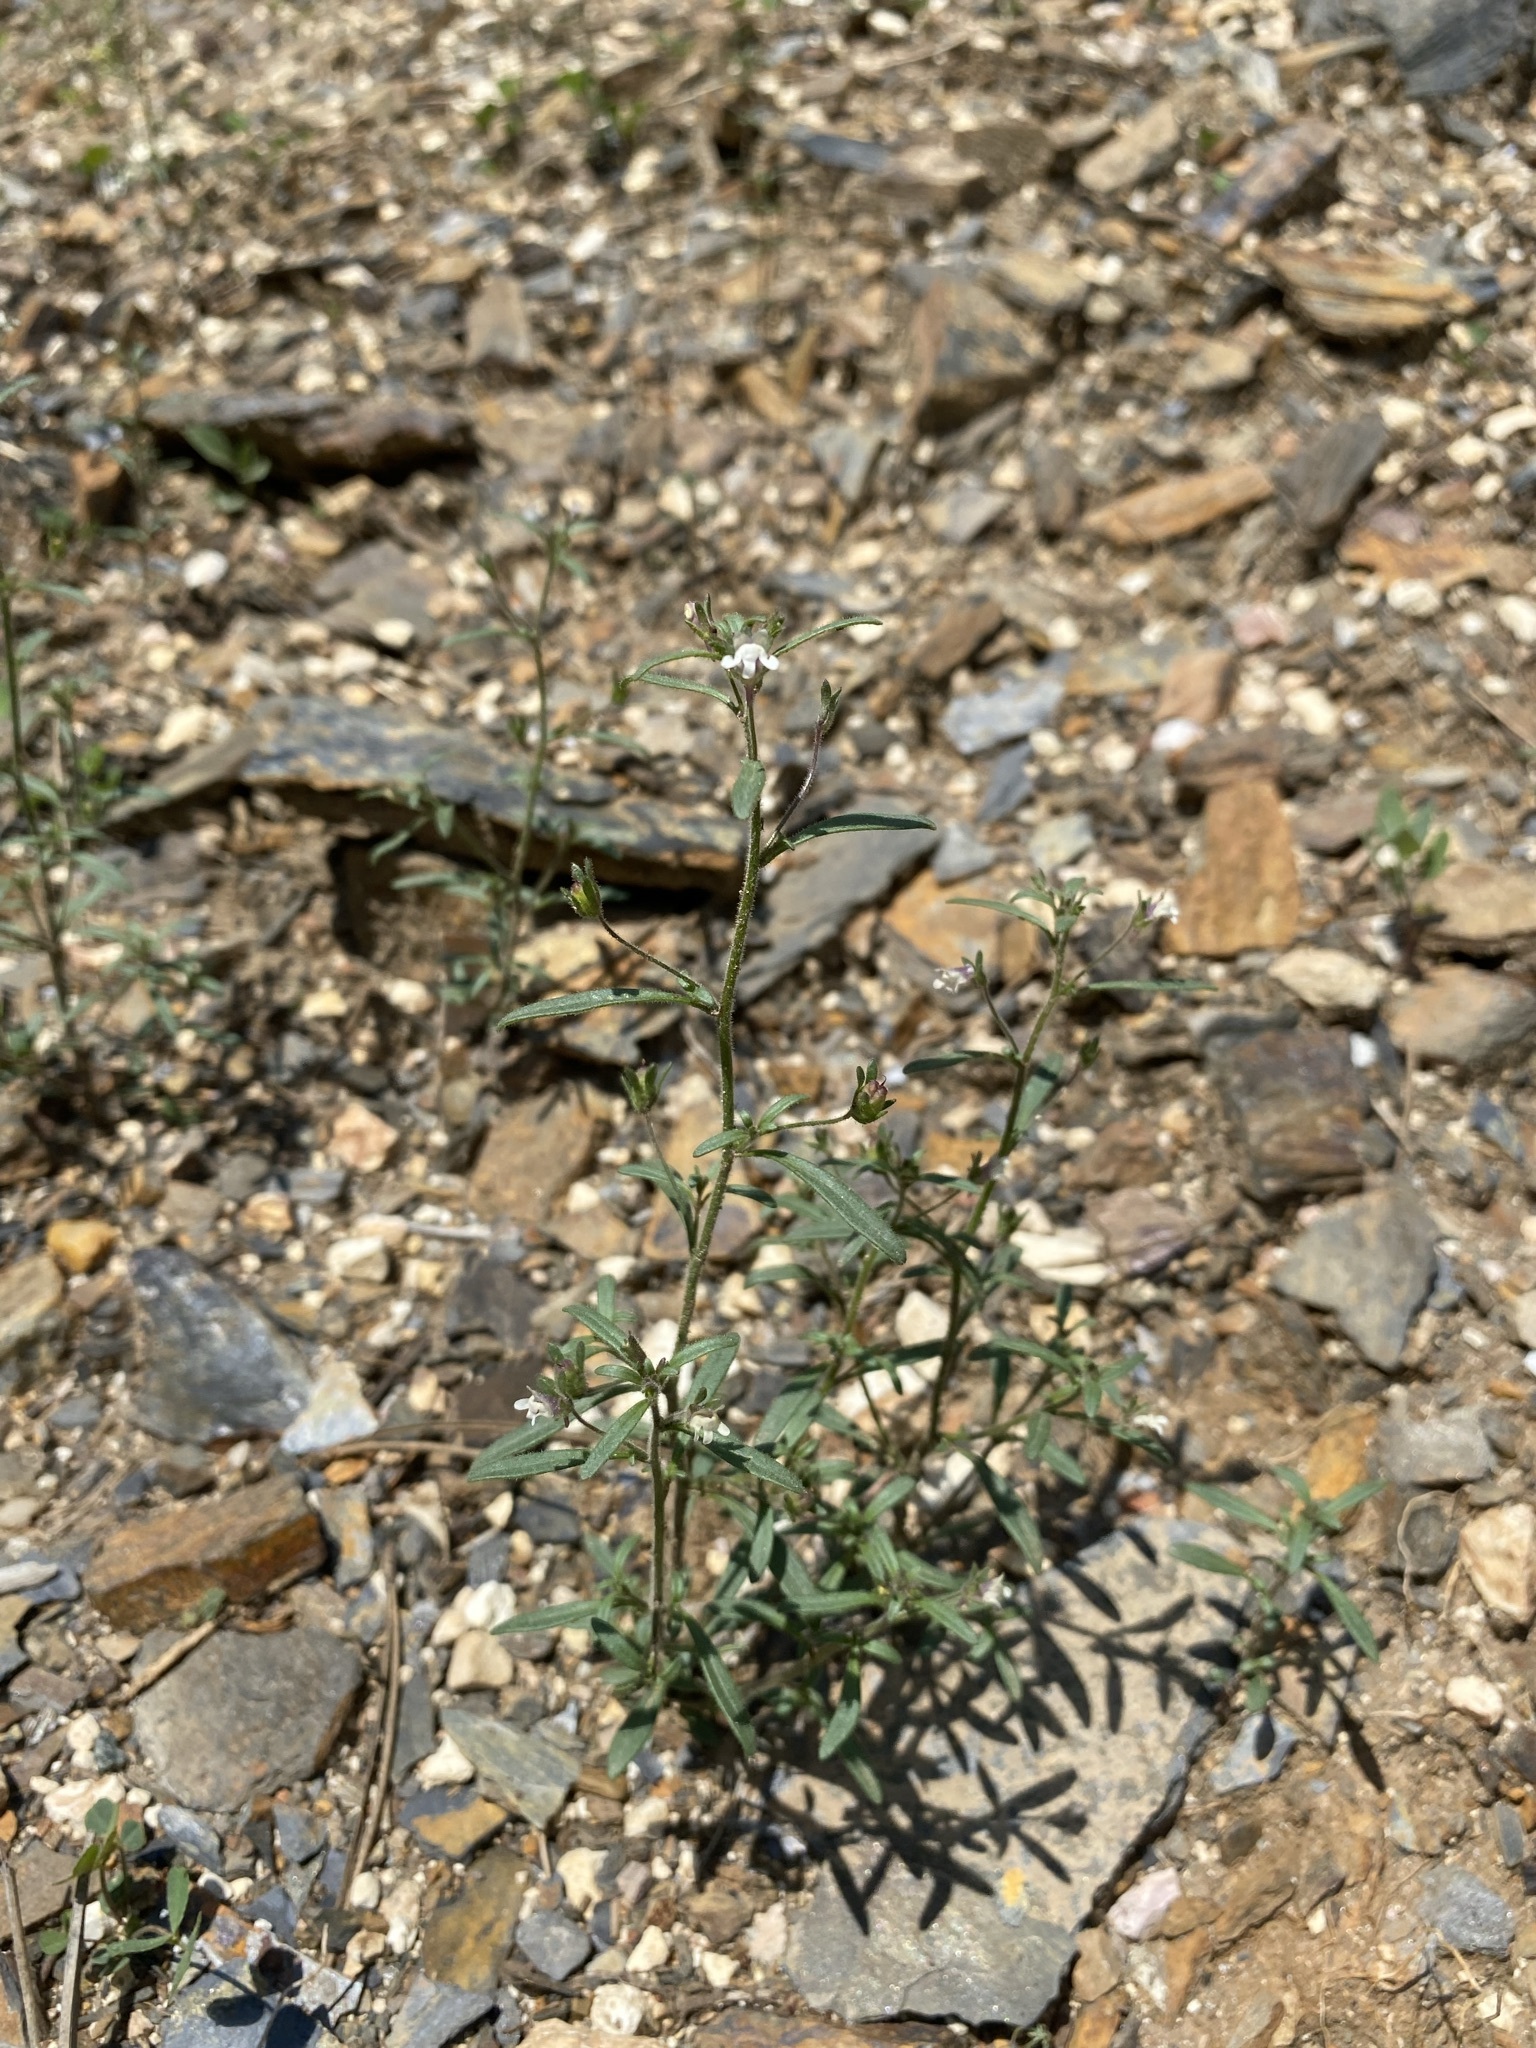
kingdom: Plantae
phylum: Tracheophyta
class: Magnoliopsida
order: Lamiales
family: Plantaginaceae
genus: Chaenorhinum
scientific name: Chaenorhinum minus
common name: Dwarf snapdragon
